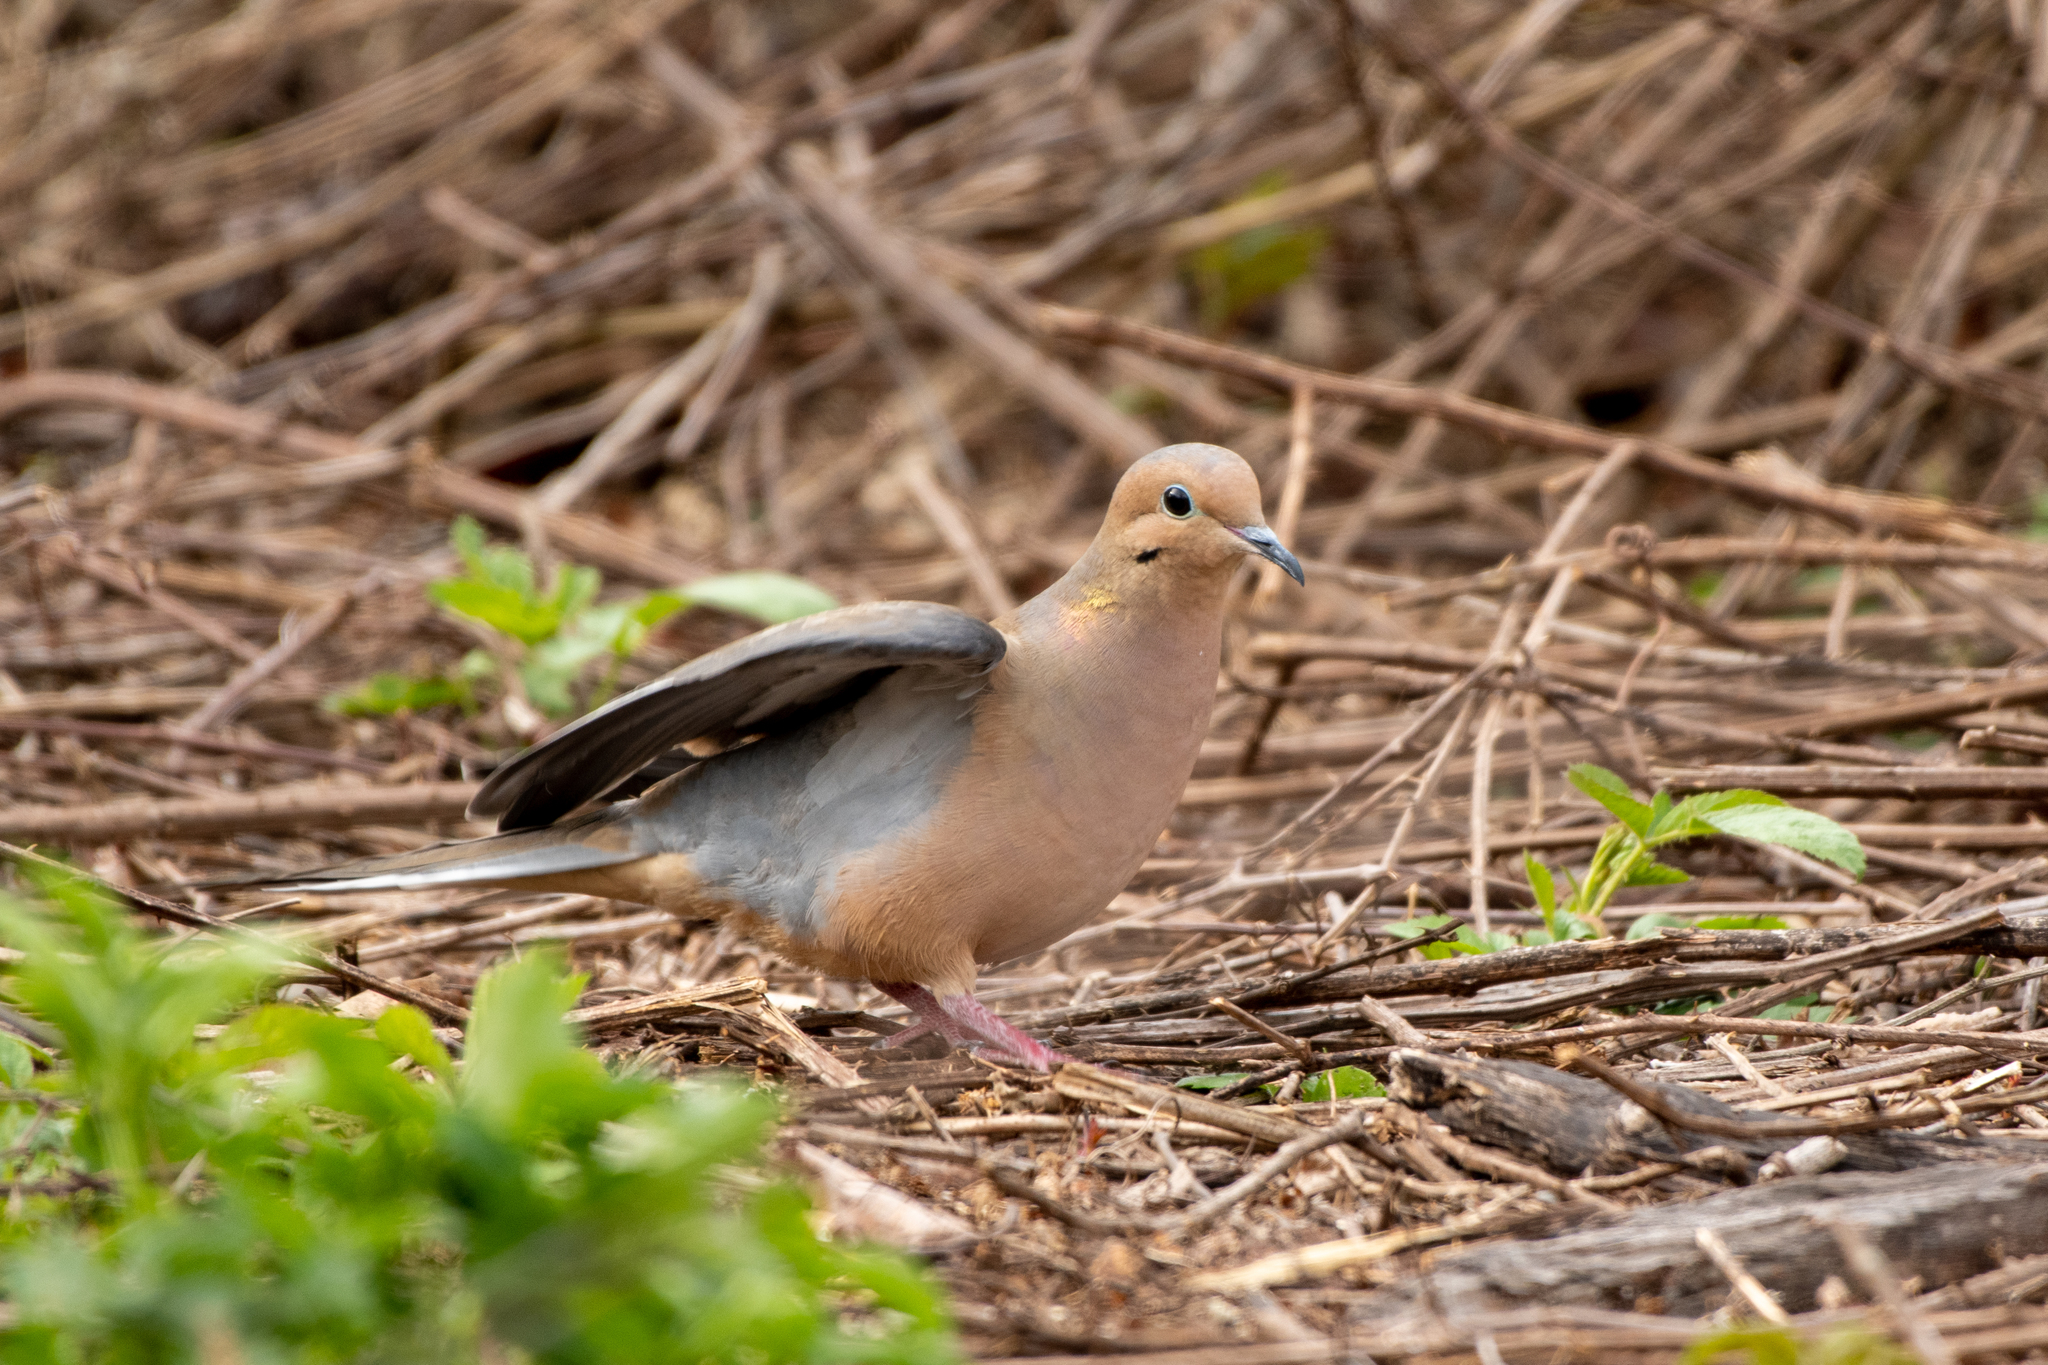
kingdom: Animalia
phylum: Chordata
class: Aves
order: Columbiformes
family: Columbidae
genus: Zenaida
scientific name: Zenaida macroura
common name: Mourning dove
